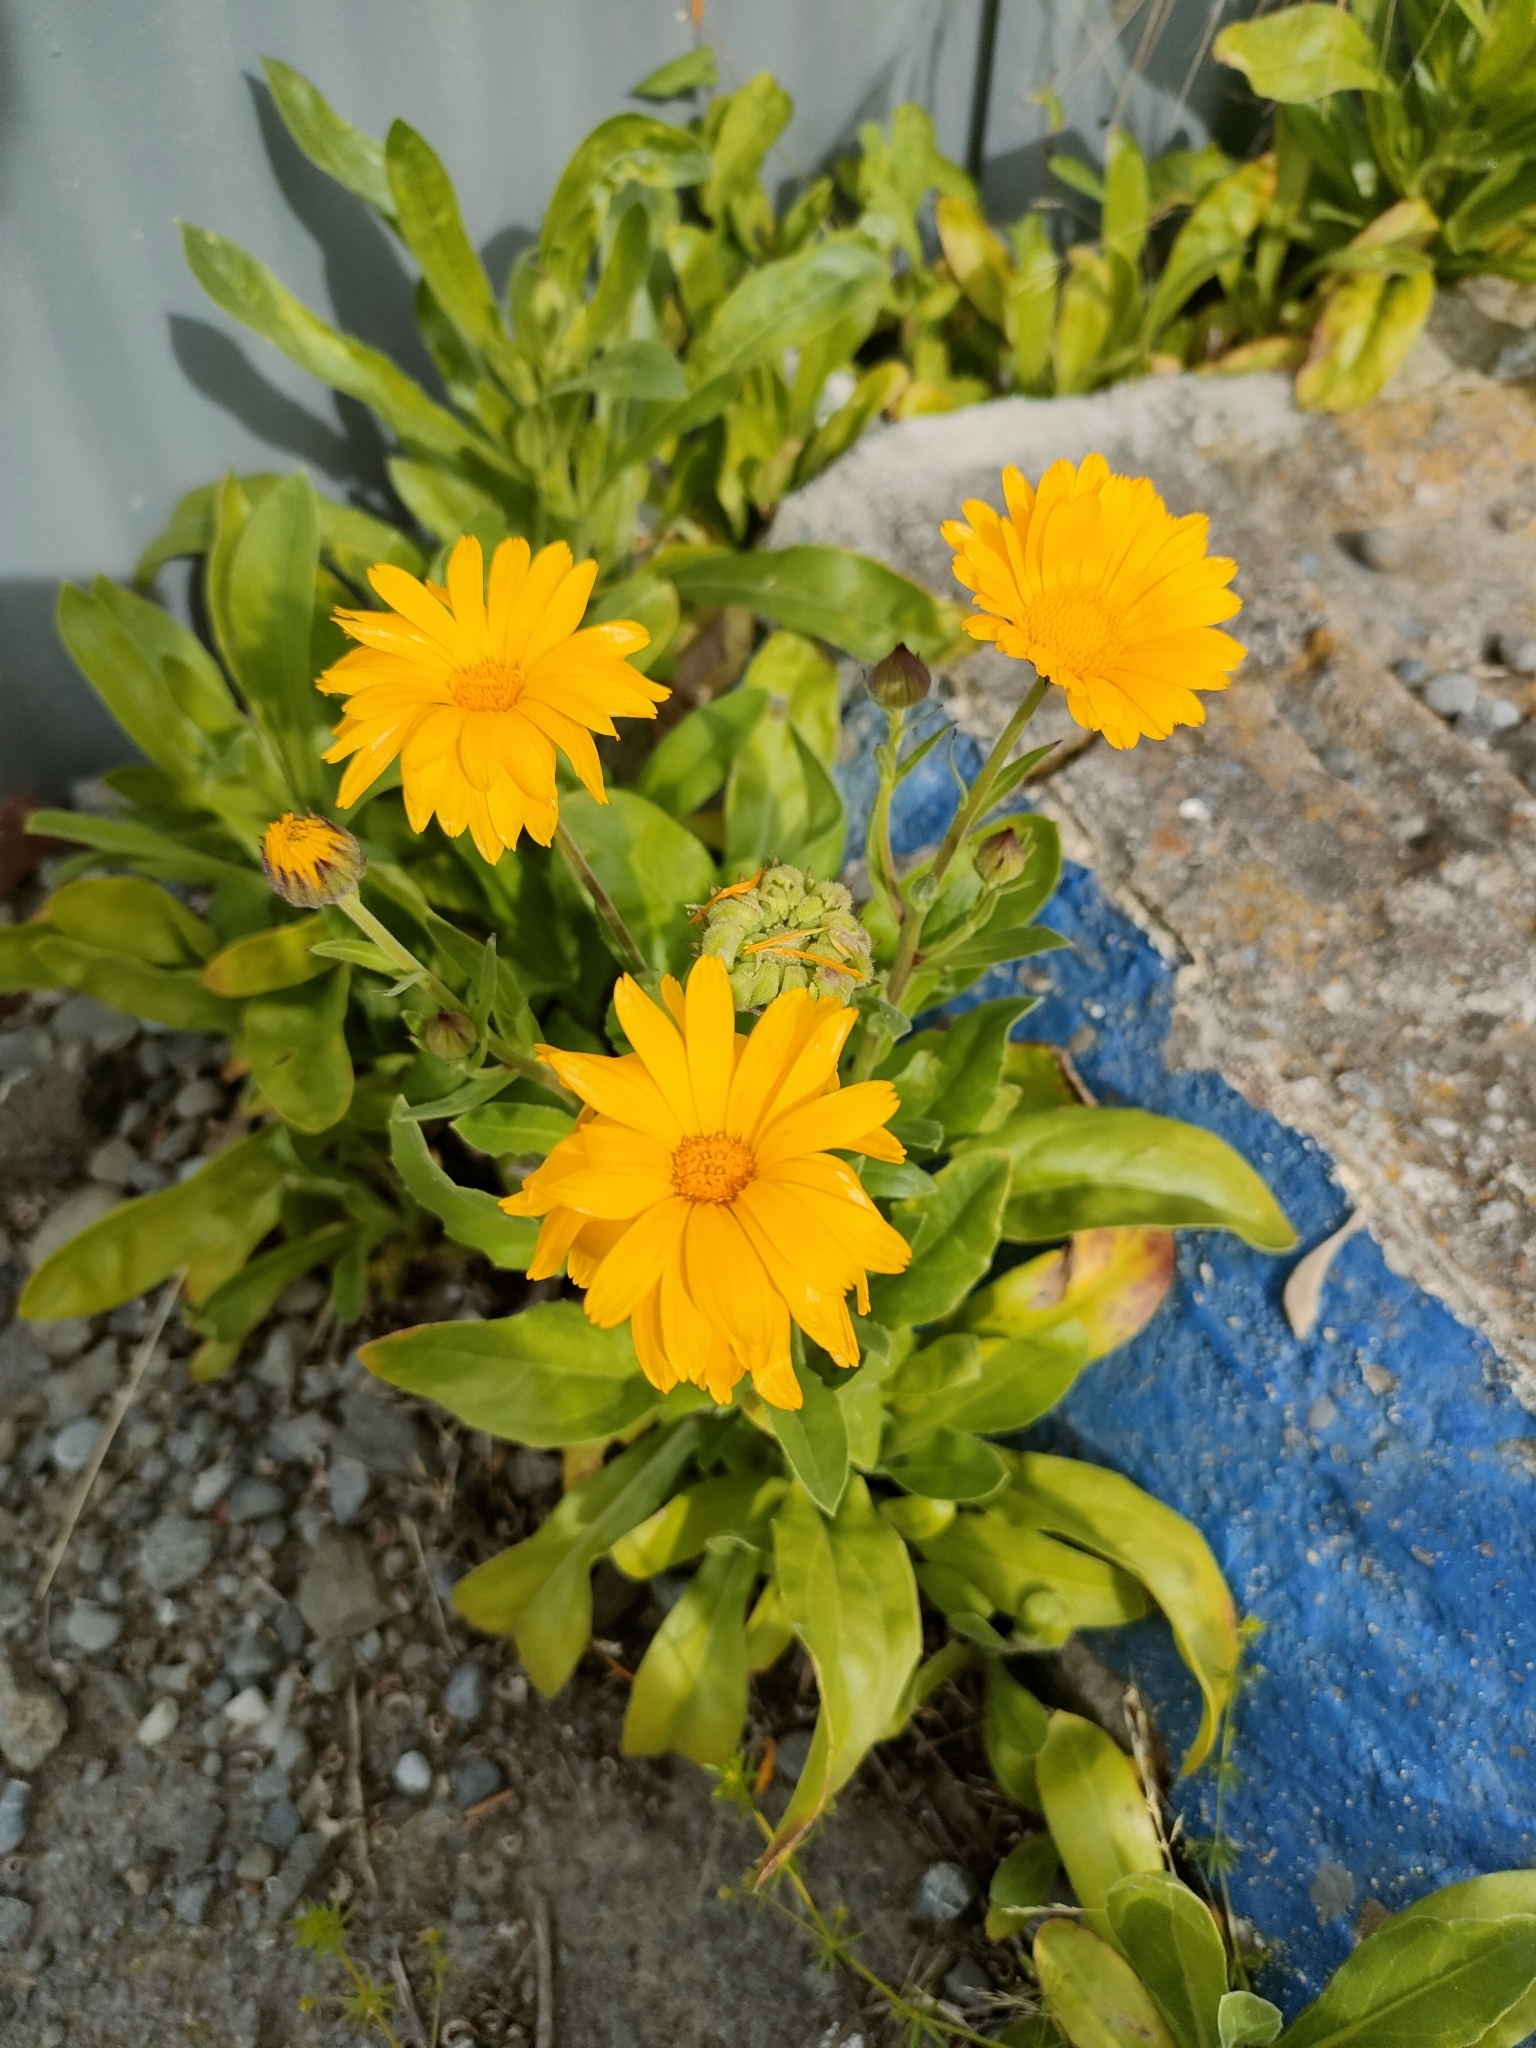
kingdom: Plantae
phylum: Tracheophyta
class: Magnoliopsida
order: Asterales
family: Asteraceae
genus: Calendula
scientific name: Calendula officinalis
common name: Pot marigold
